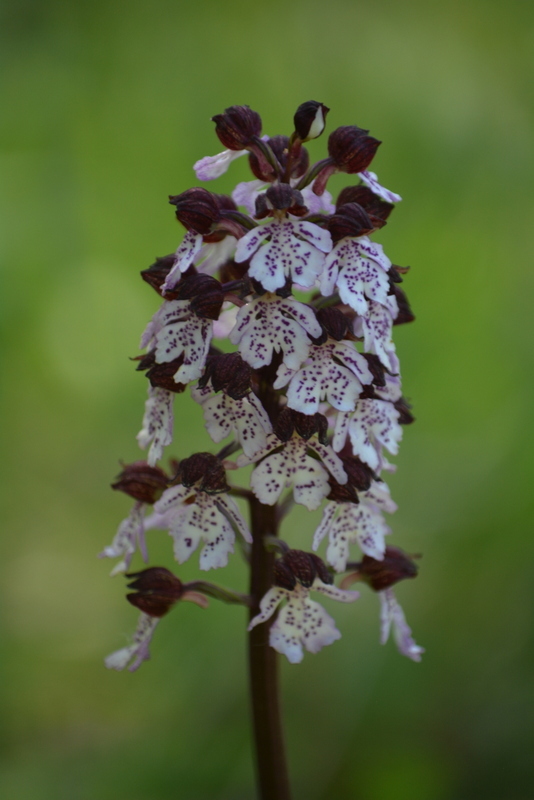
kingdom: Plantae
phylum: Tracheophyta
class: Liliopsida
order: Asparagales
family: Orchidaceae
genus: Orchis
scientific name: Orchis purpurea
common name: Lady orchid
